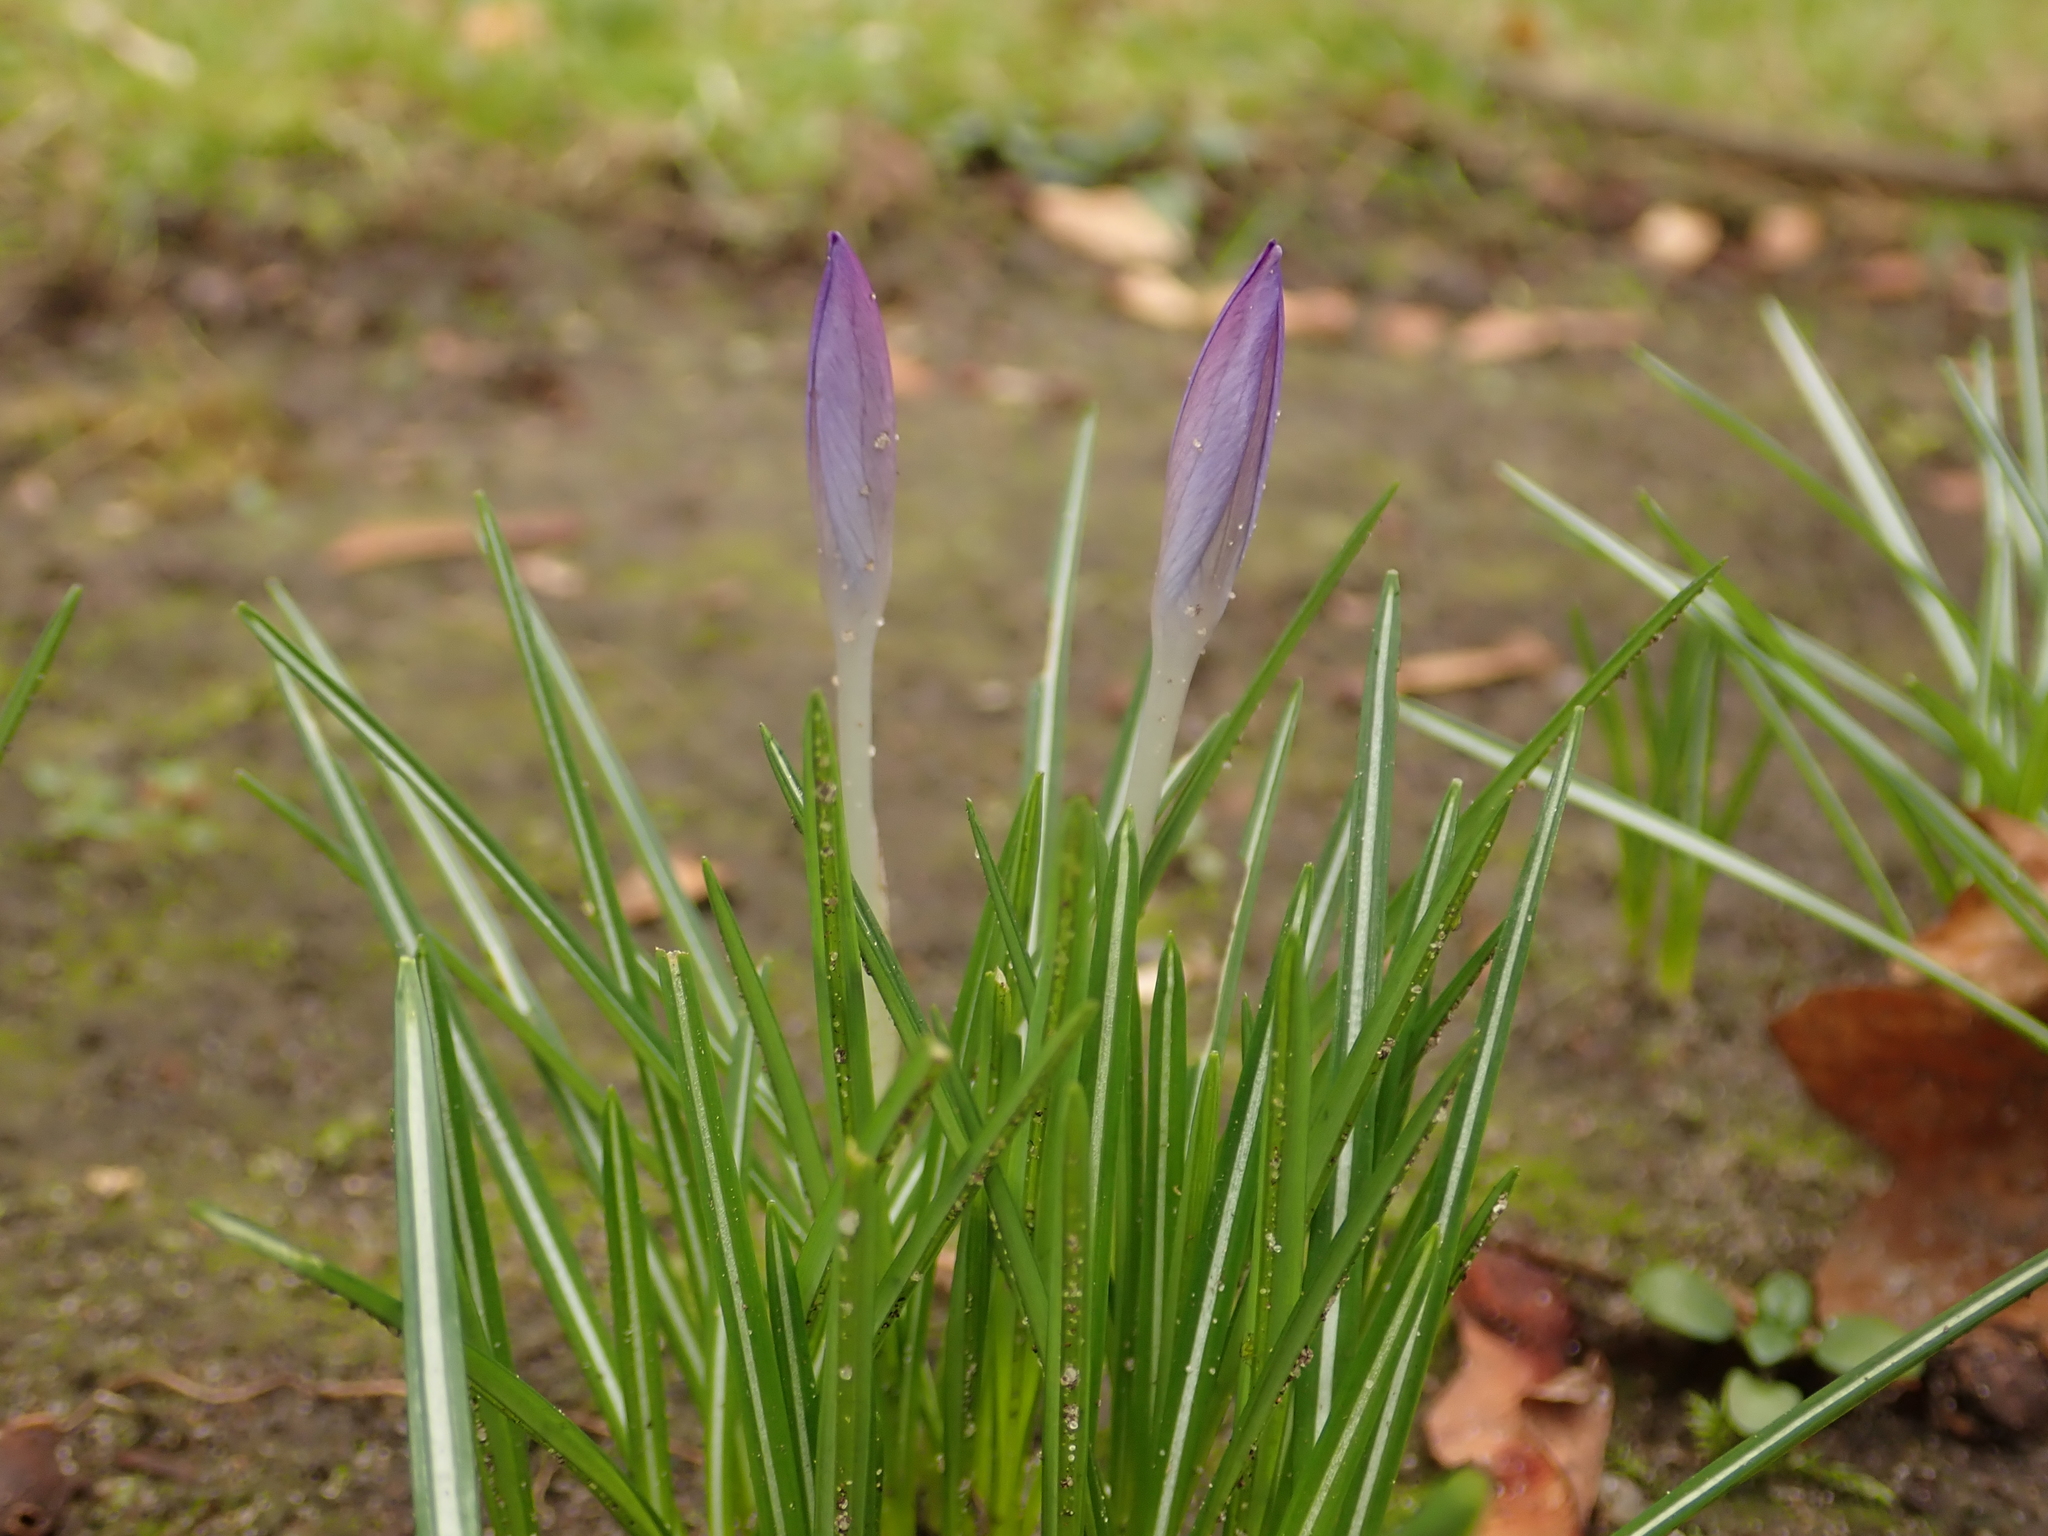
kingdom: Plantae
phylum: Tracheophyta
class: Liliopsida
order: Asparagales
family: Iridaceae
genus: Crocus
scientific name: Crocus tommasinianus
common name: Early crocus
